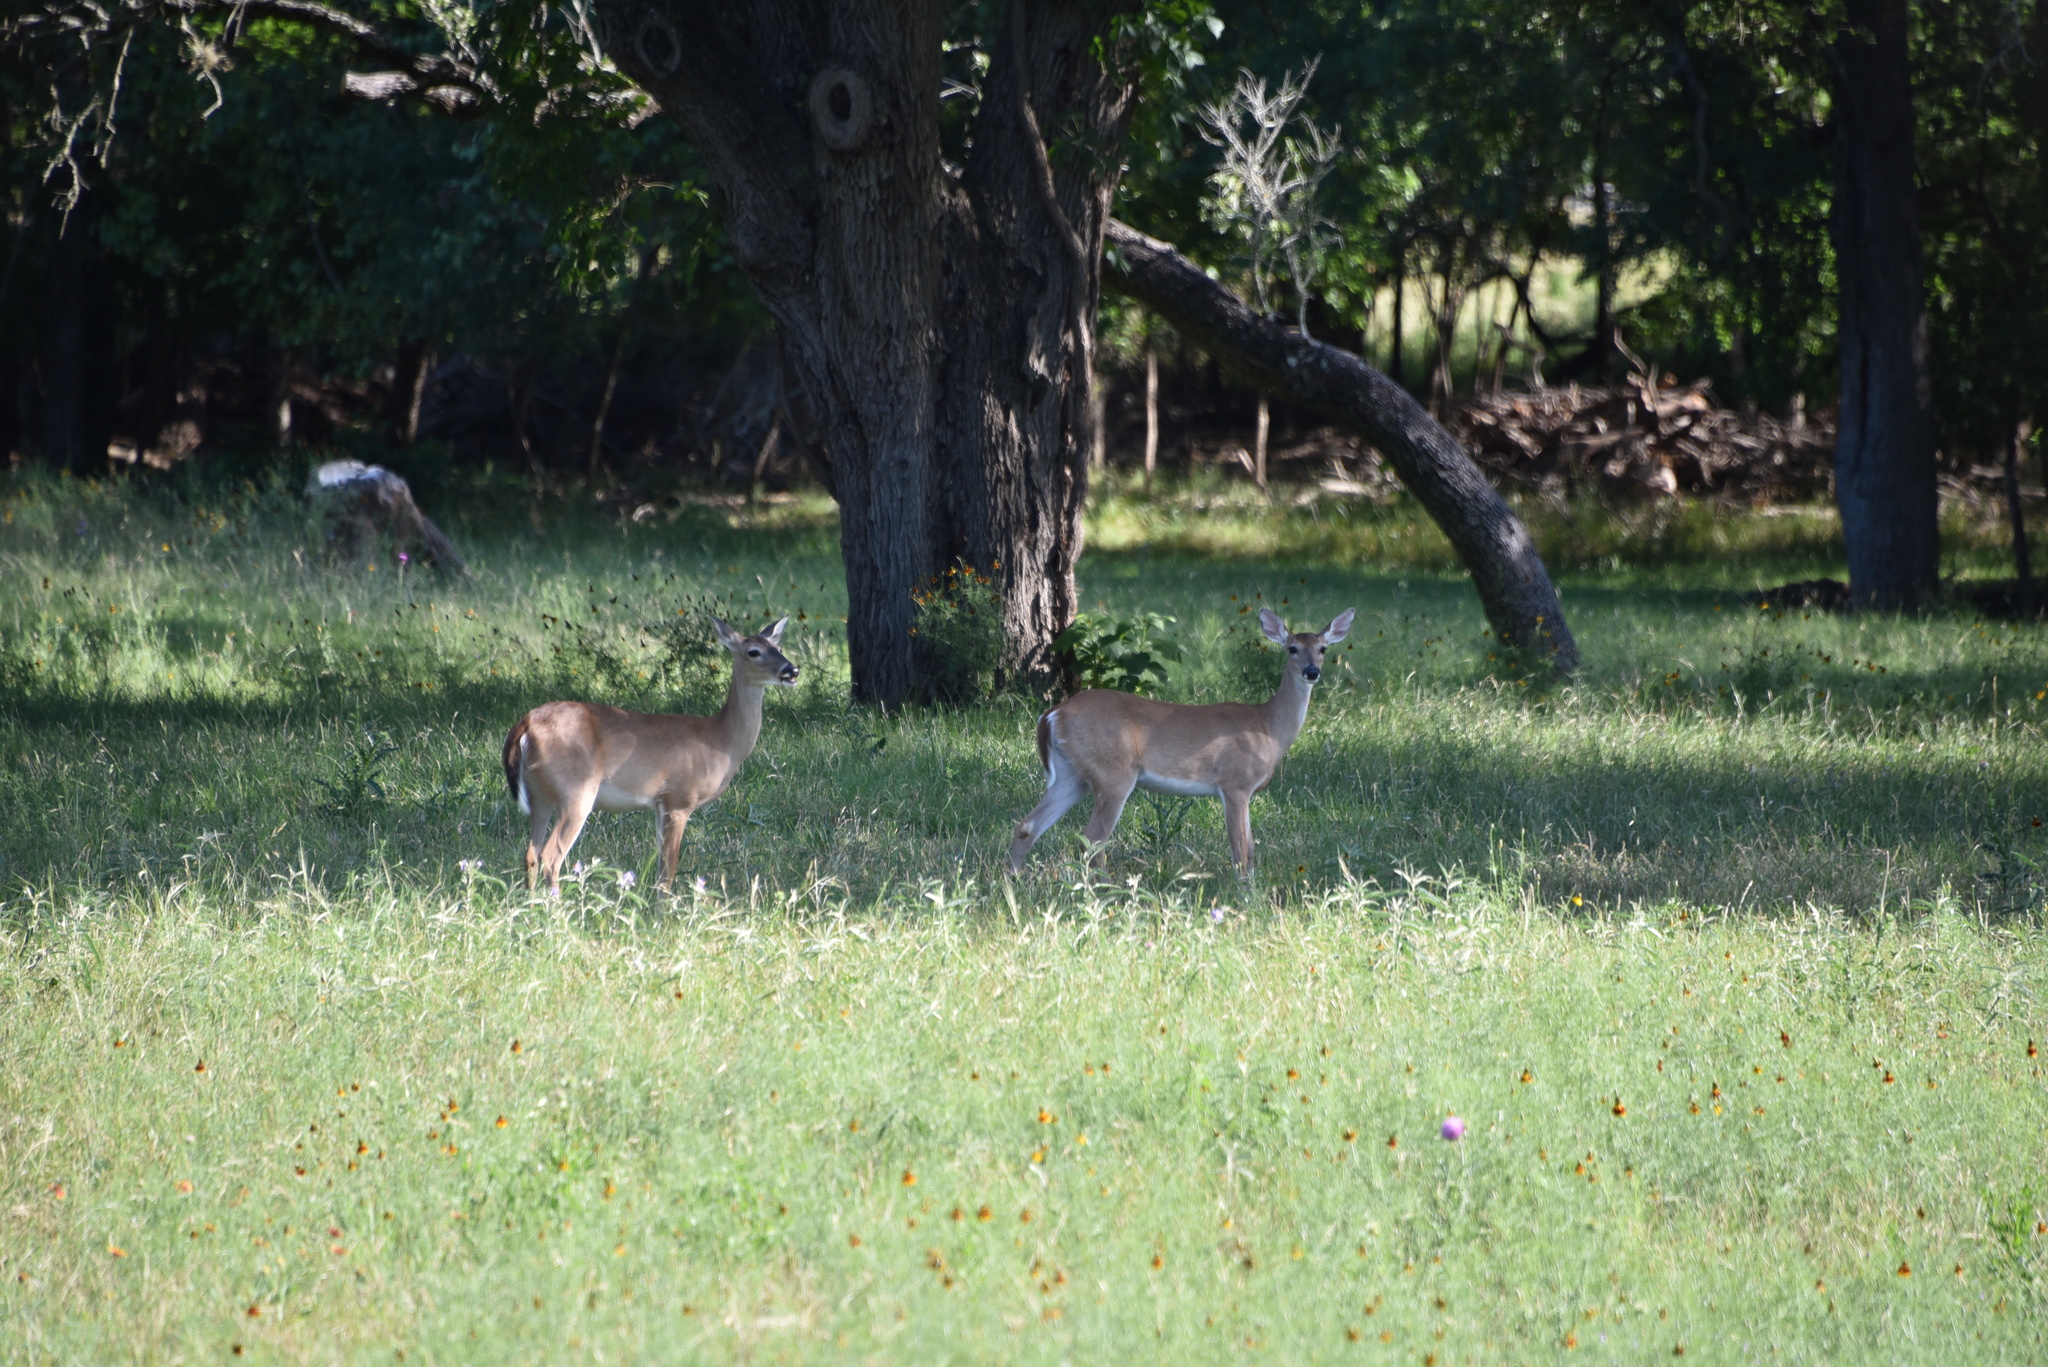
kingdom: Animalia
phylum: Chordata
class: Mammalia
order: Artiodactyla
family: Cervidae
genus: Odocoileus
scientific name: Odocoileus virginianus
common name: White-tailed deer
